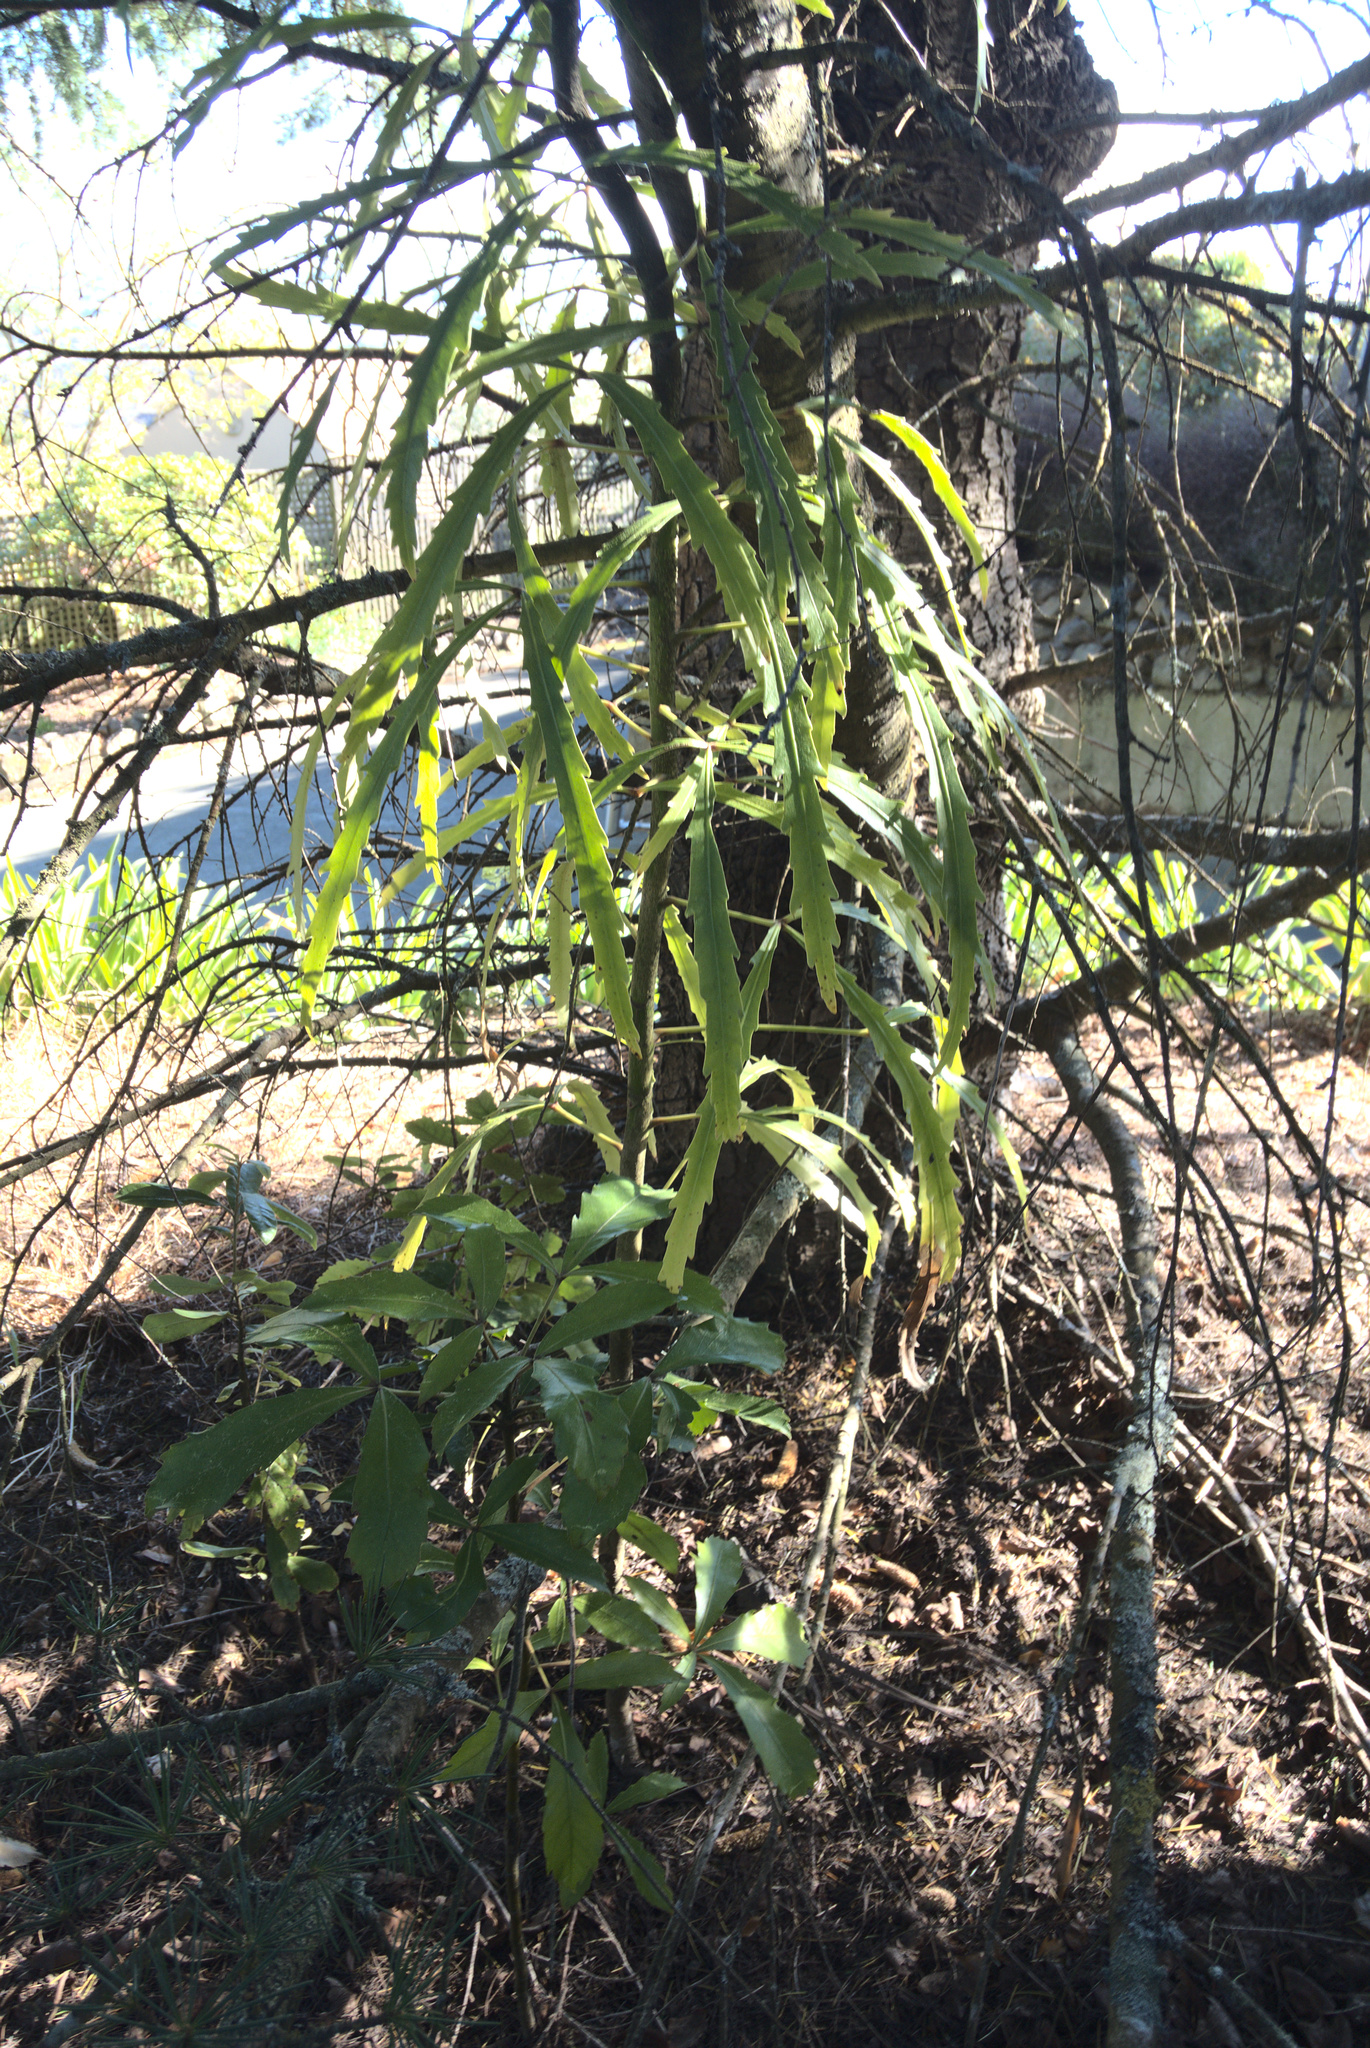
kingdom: Plantae
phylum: Tracheophyta
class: Magnoliopsida
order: Apiales
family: Araliaceae
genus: Pseudopanax
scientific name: Pseudopanax
